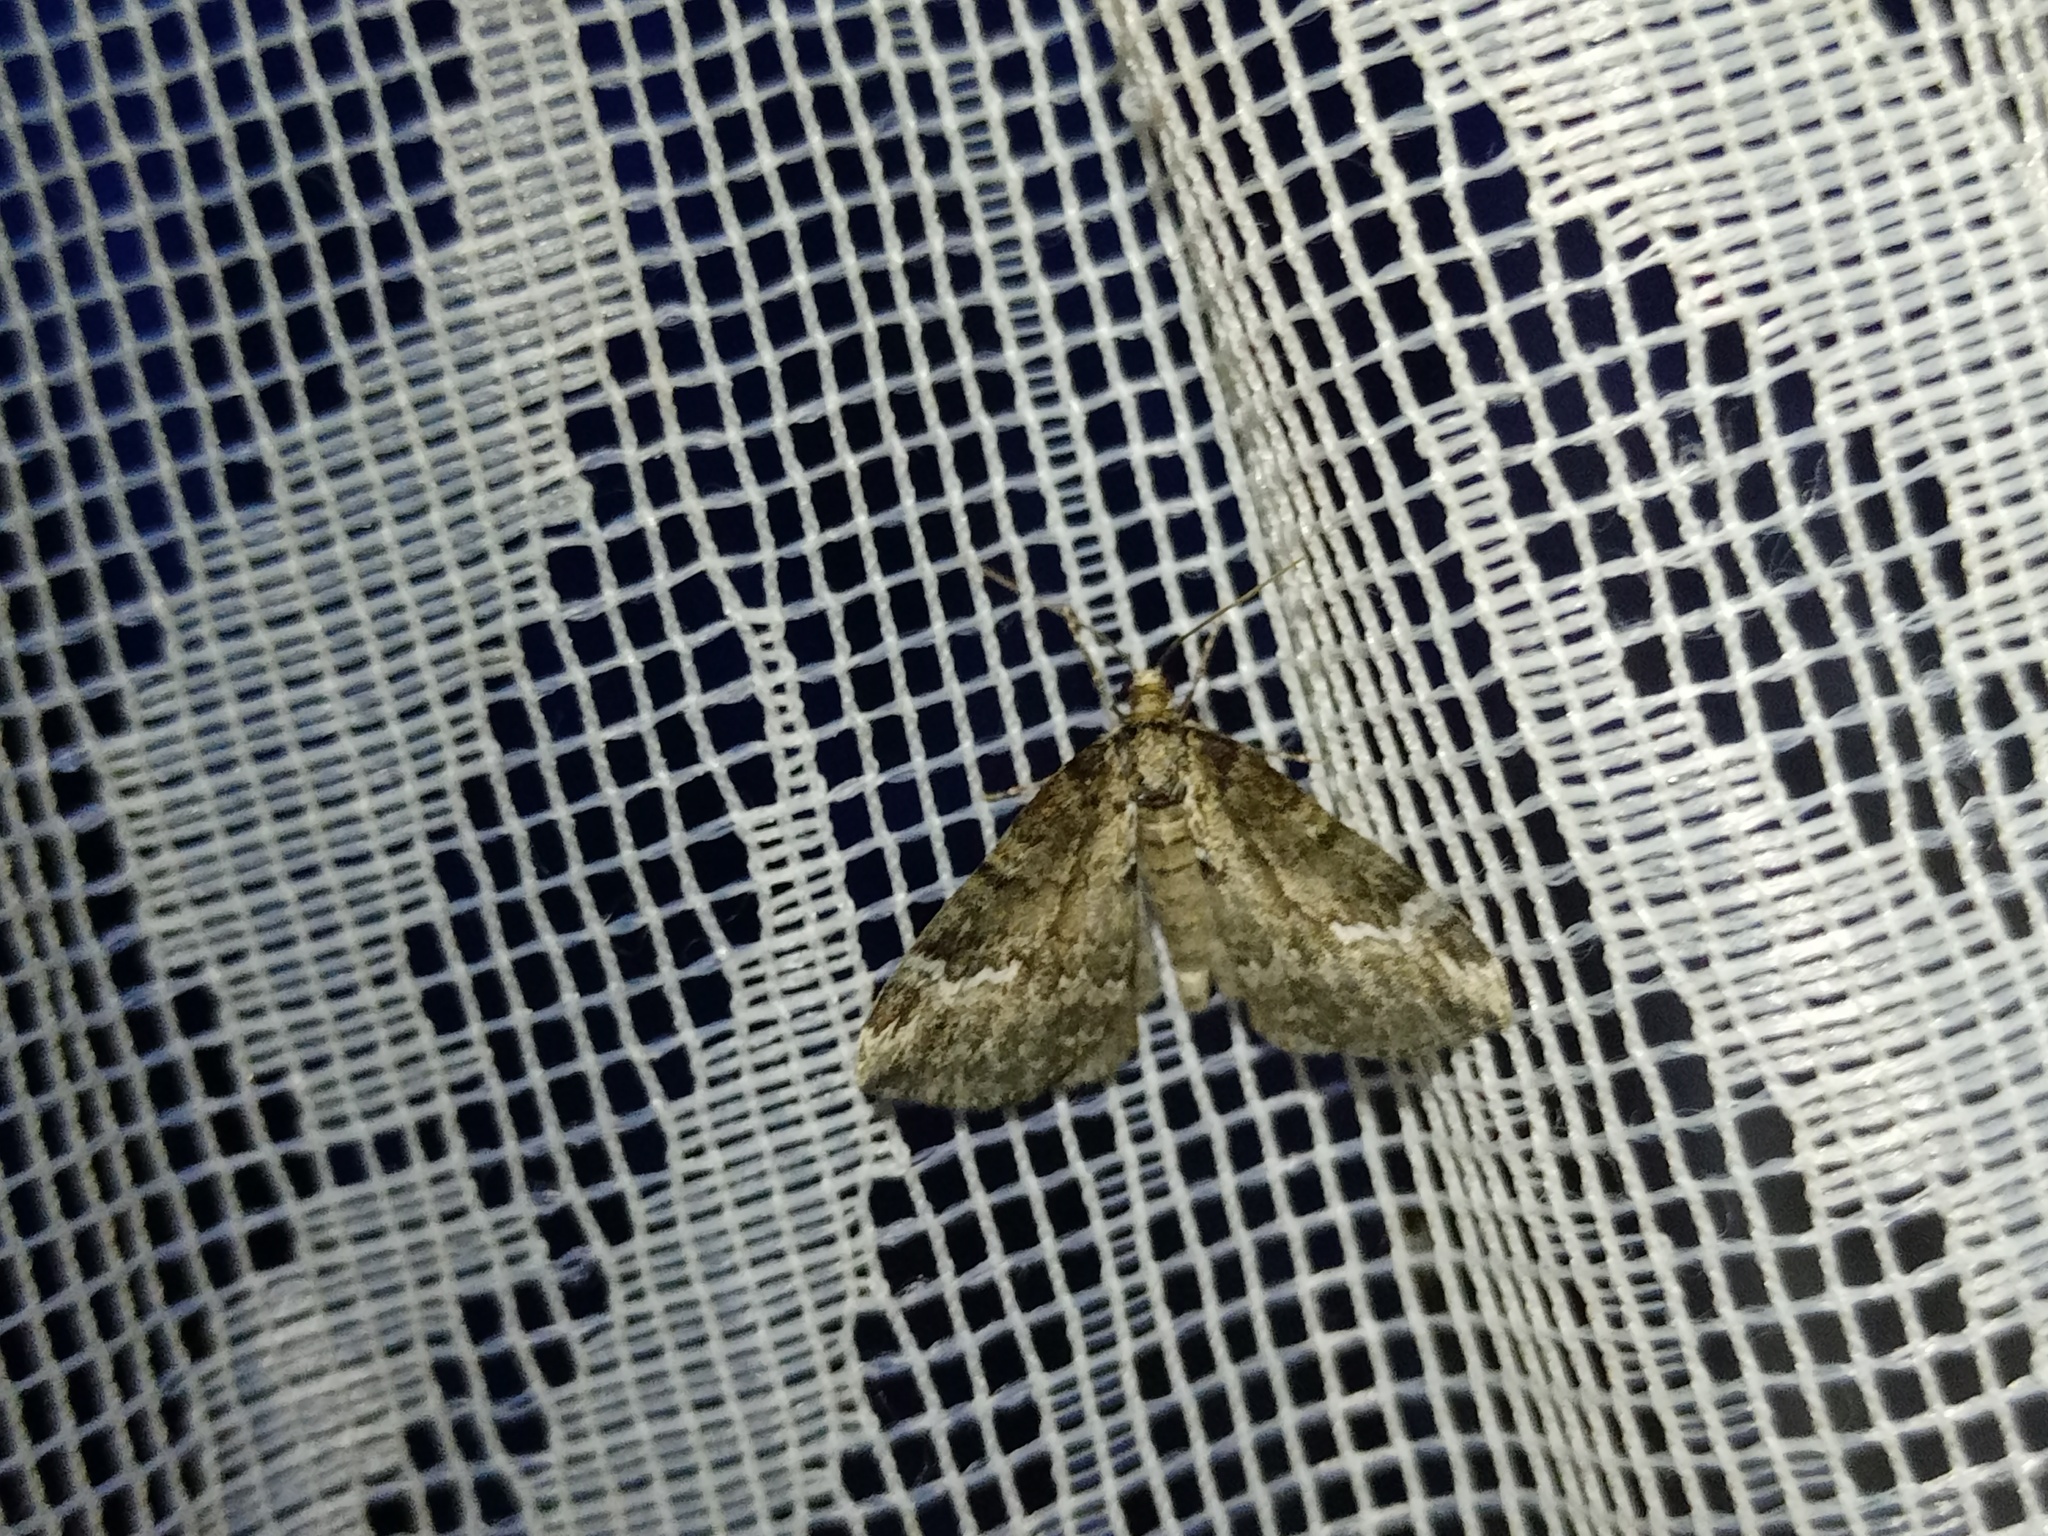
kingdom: Animalia
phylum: Arthropoda
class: Insecta
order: Lepidoptera
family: Geometridae
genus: Perizoma
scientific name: Perizoma lugdunaria
